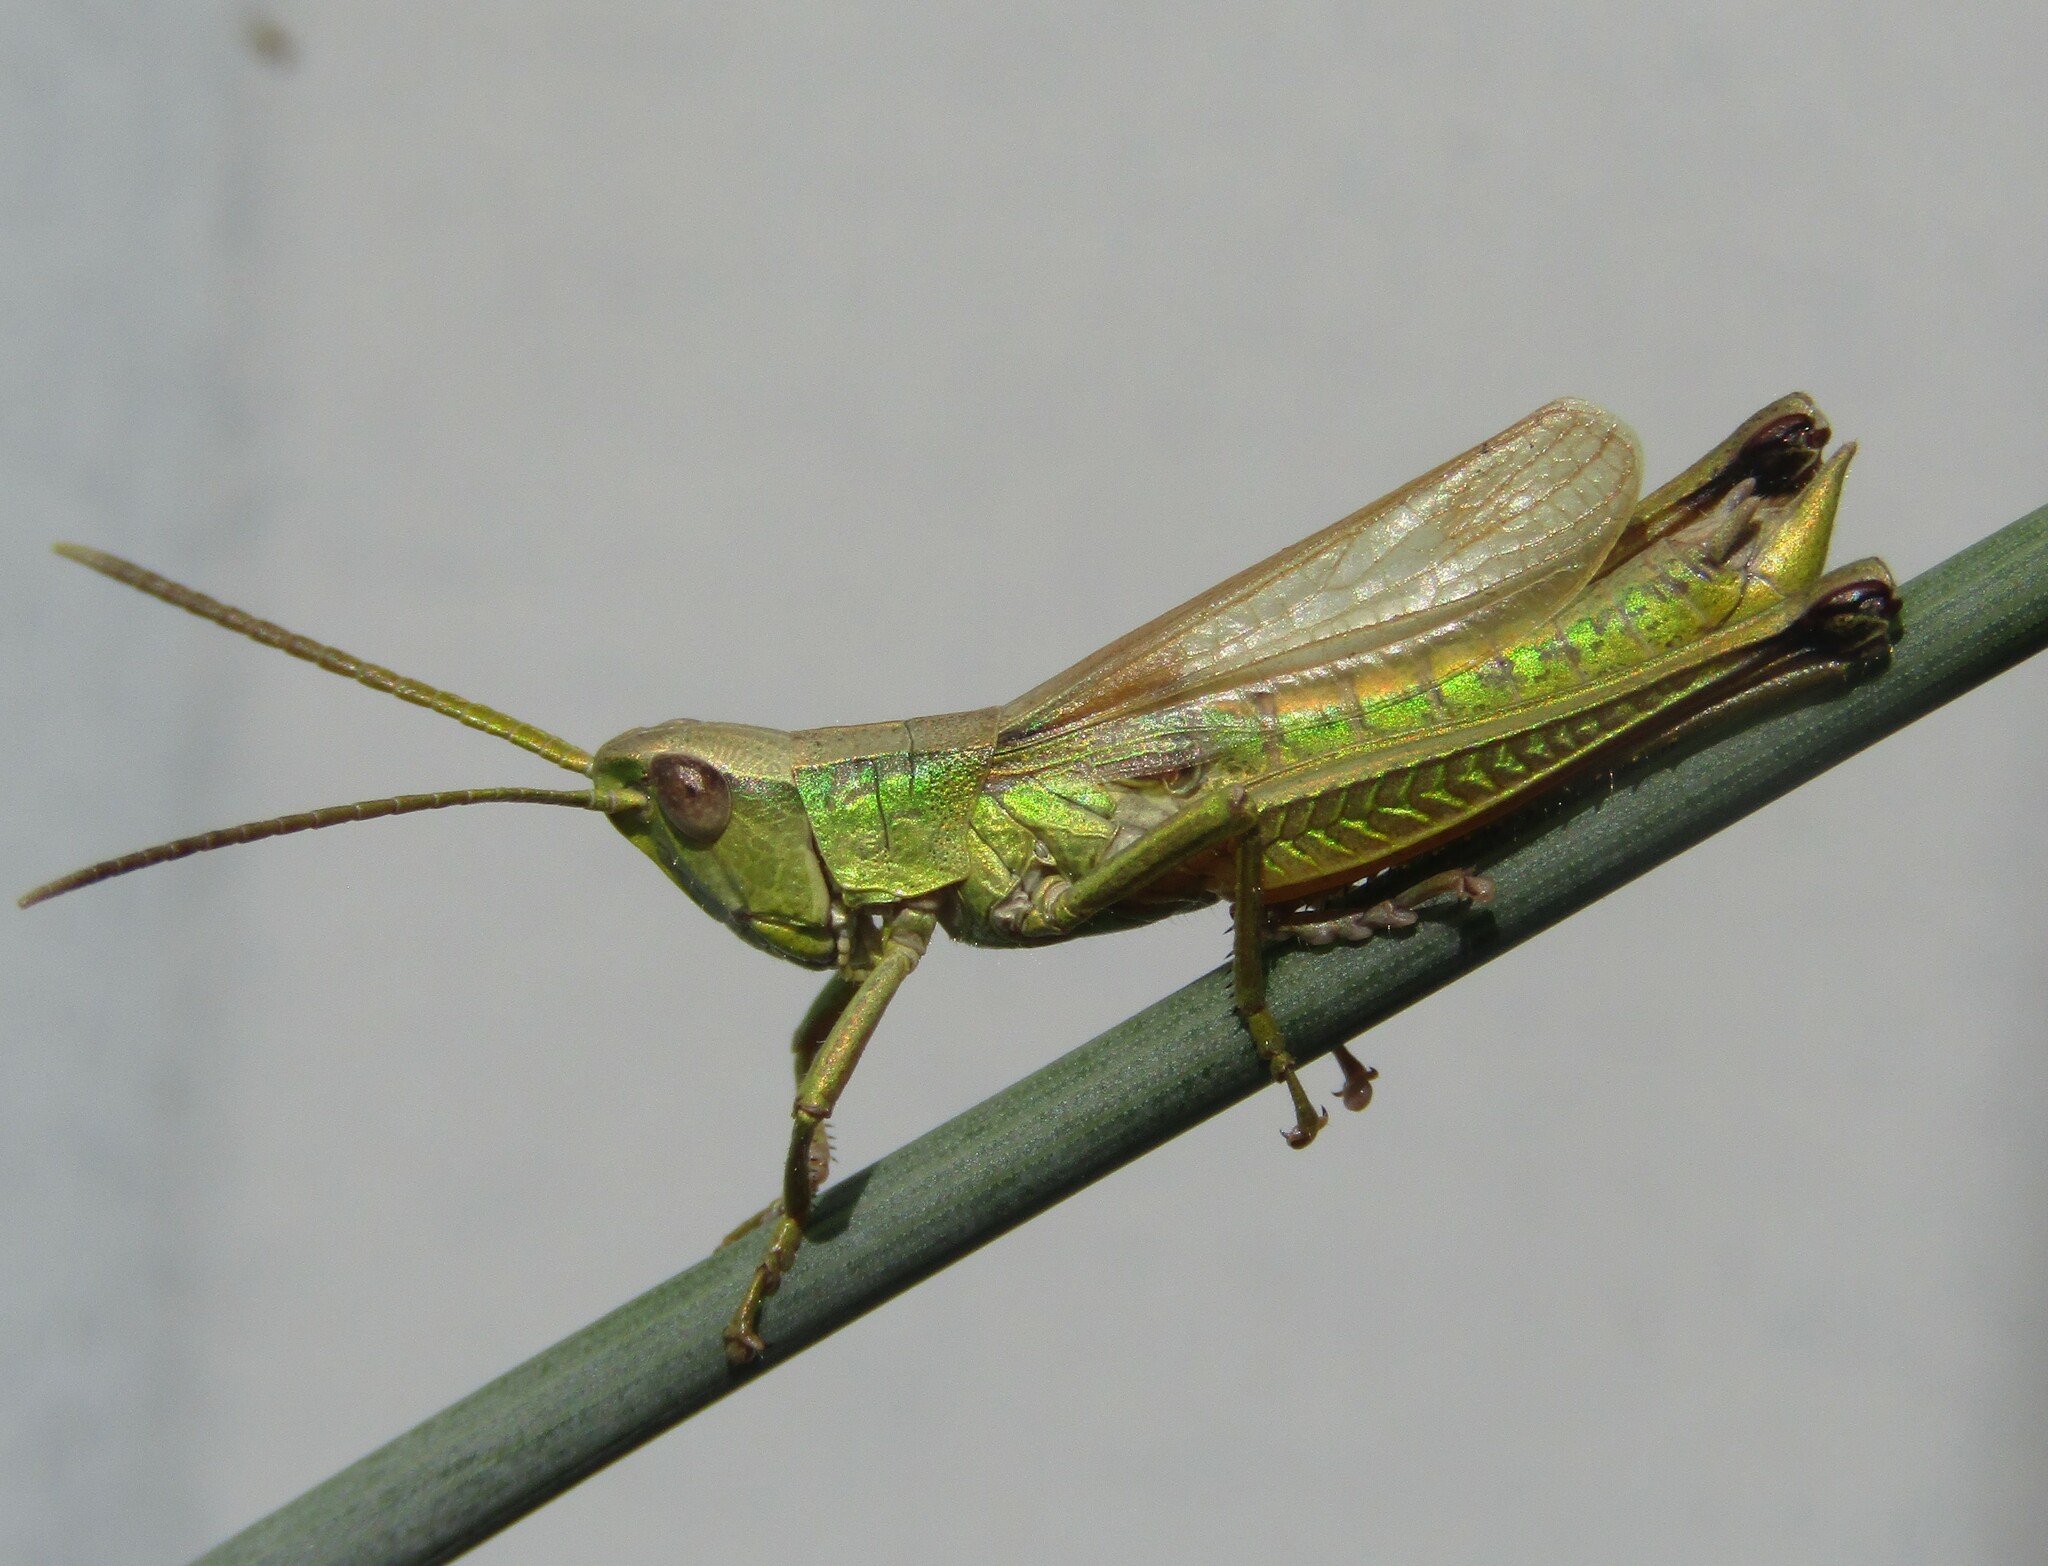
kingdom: Animalia
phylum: Arthropoda
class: Insecta
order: Orthoptera
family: Acrididae
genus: Chrysochraon
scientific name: Chrysochraon dispar
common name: Large gold grasshopper
